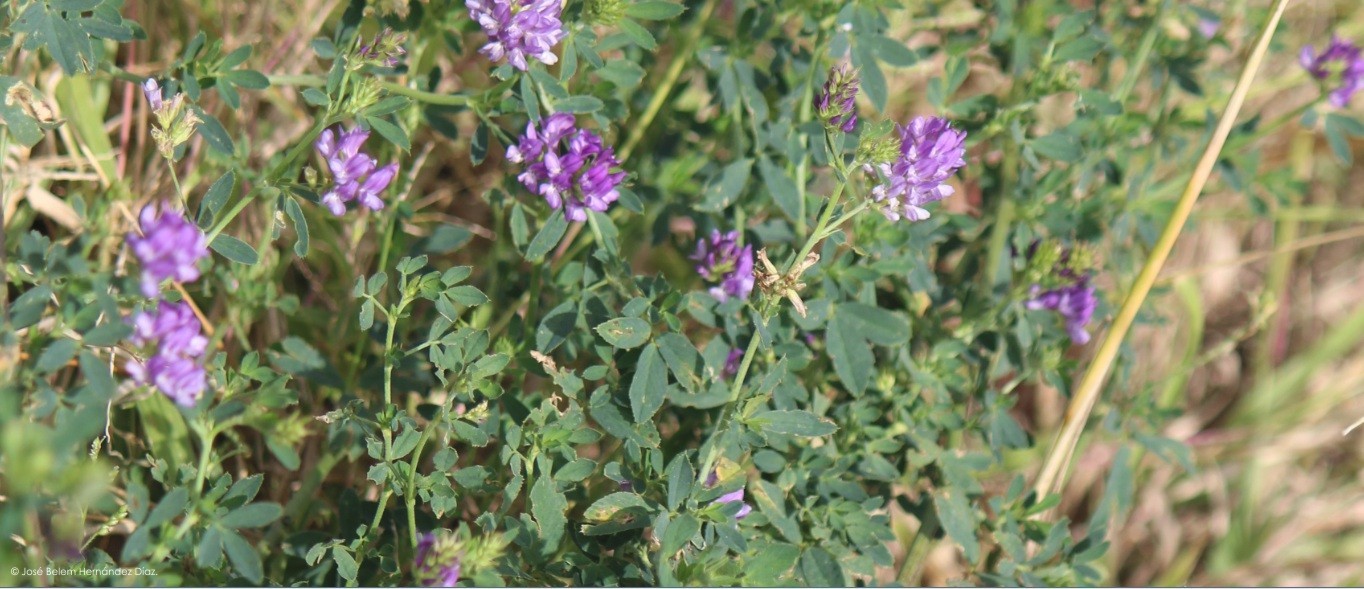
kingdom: Plantae
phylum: Tracheophyta
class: Magnoliopsida
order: Fabales
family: Fabaceae
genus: Medicago
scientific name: Medicago sativa
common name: Alfalfa
